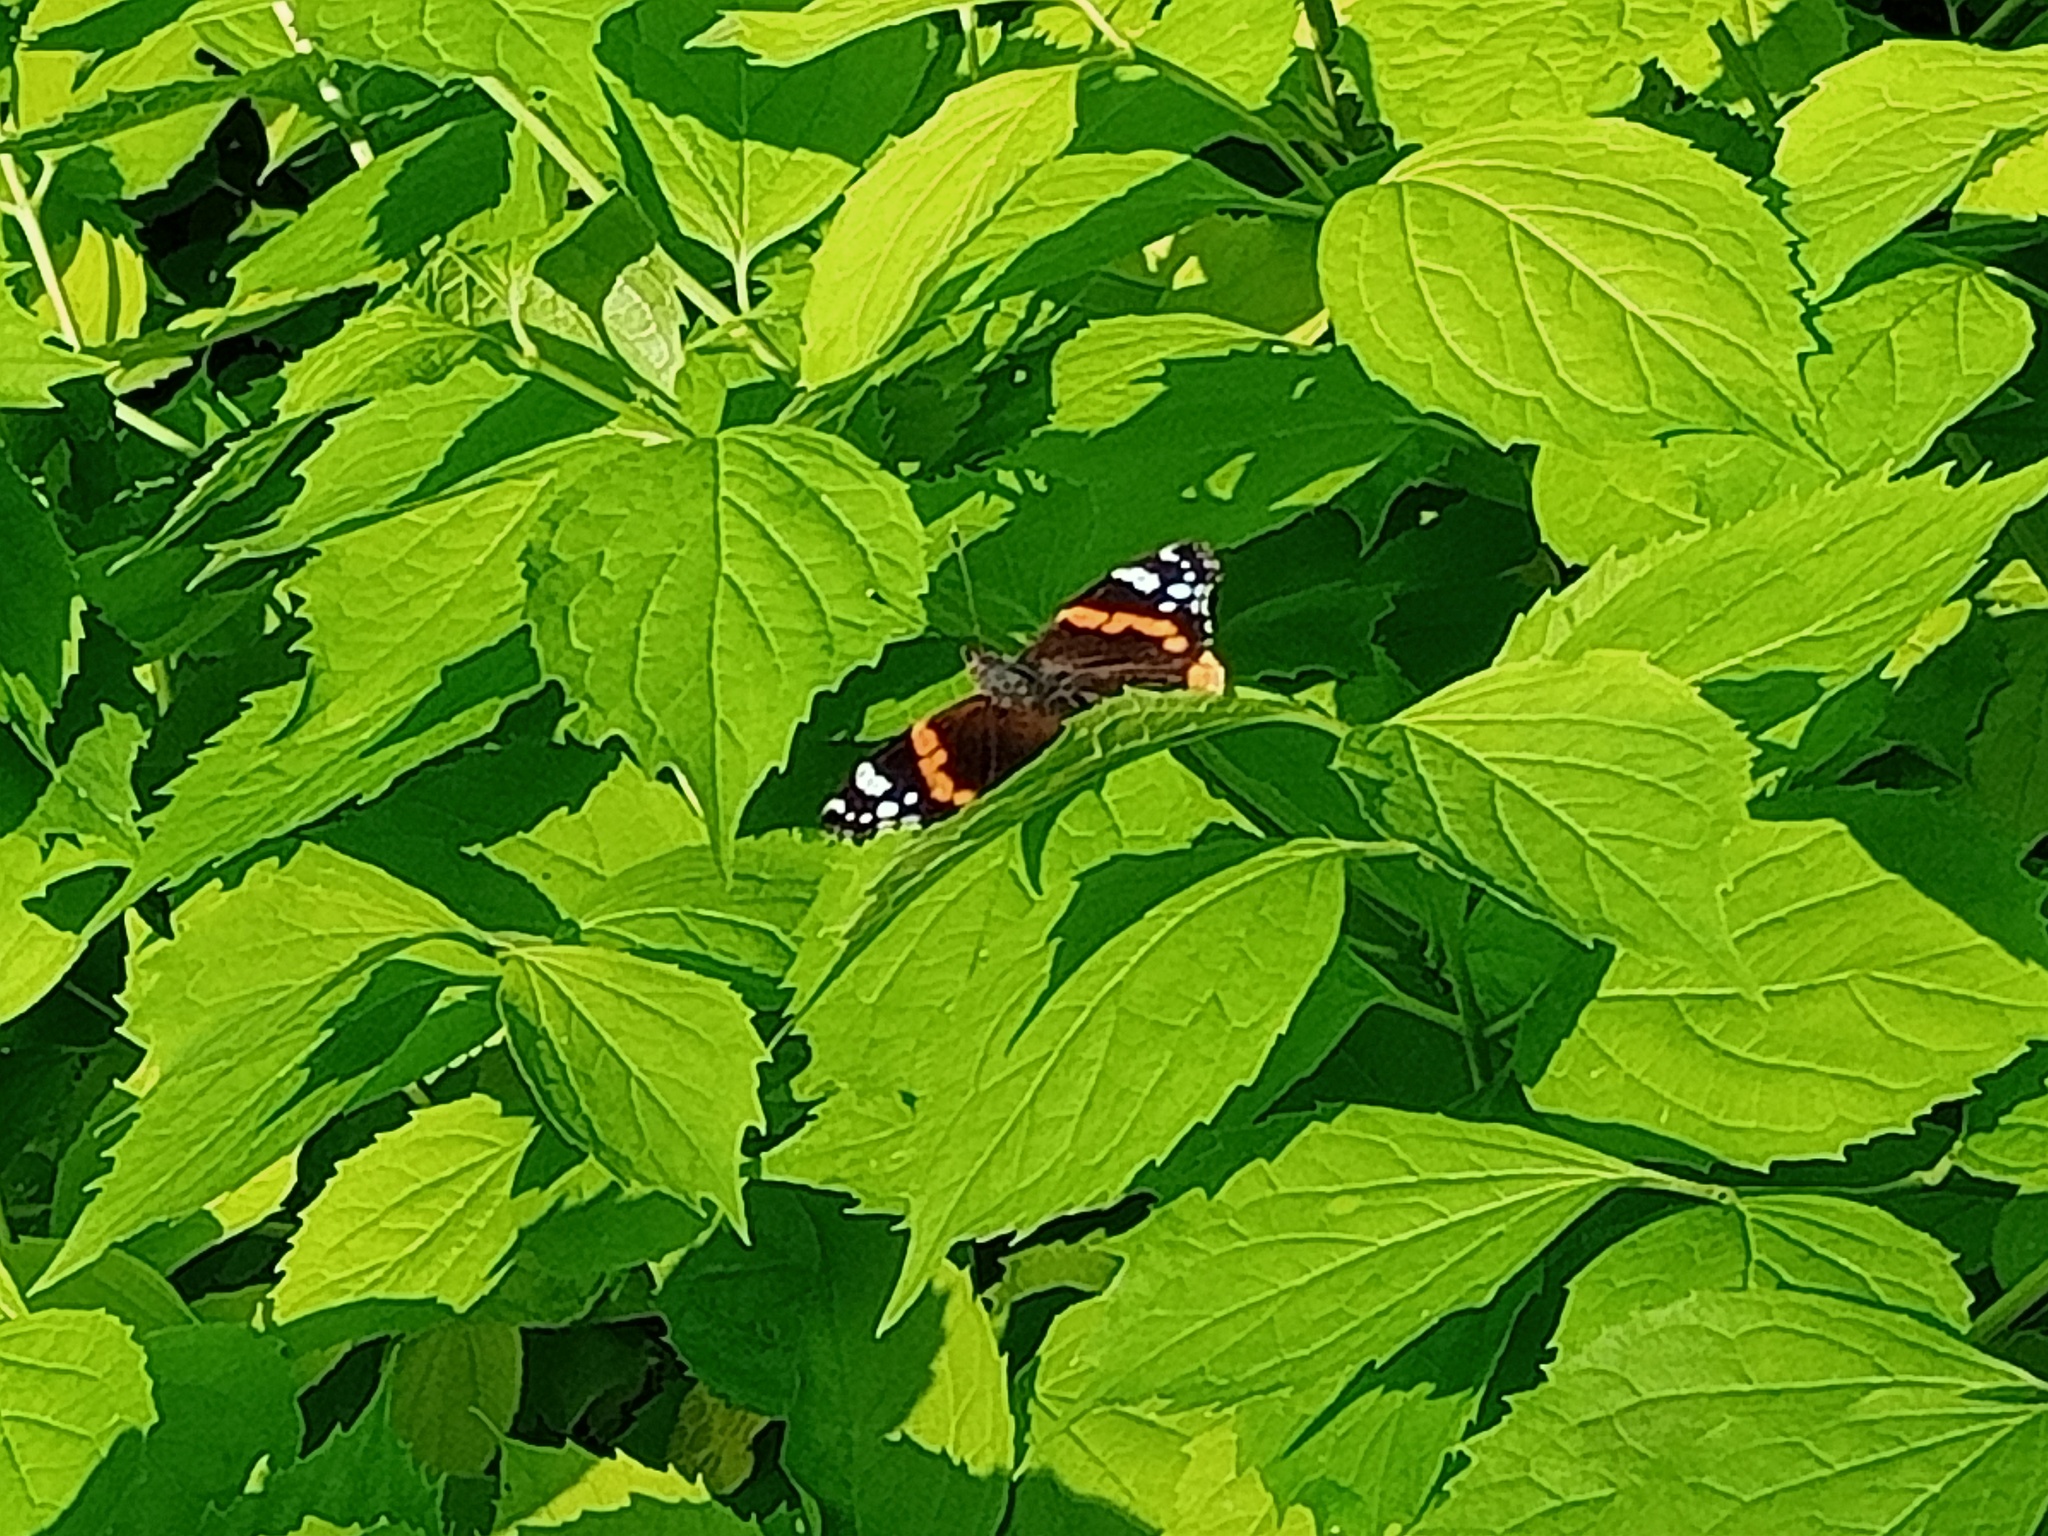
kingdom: Animalia
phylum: Arthropoda
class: Insecta
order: Lepidoptera
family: Nymphalidae
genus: Vanessa
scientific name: Vanessa atalanta
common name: Red admiral
